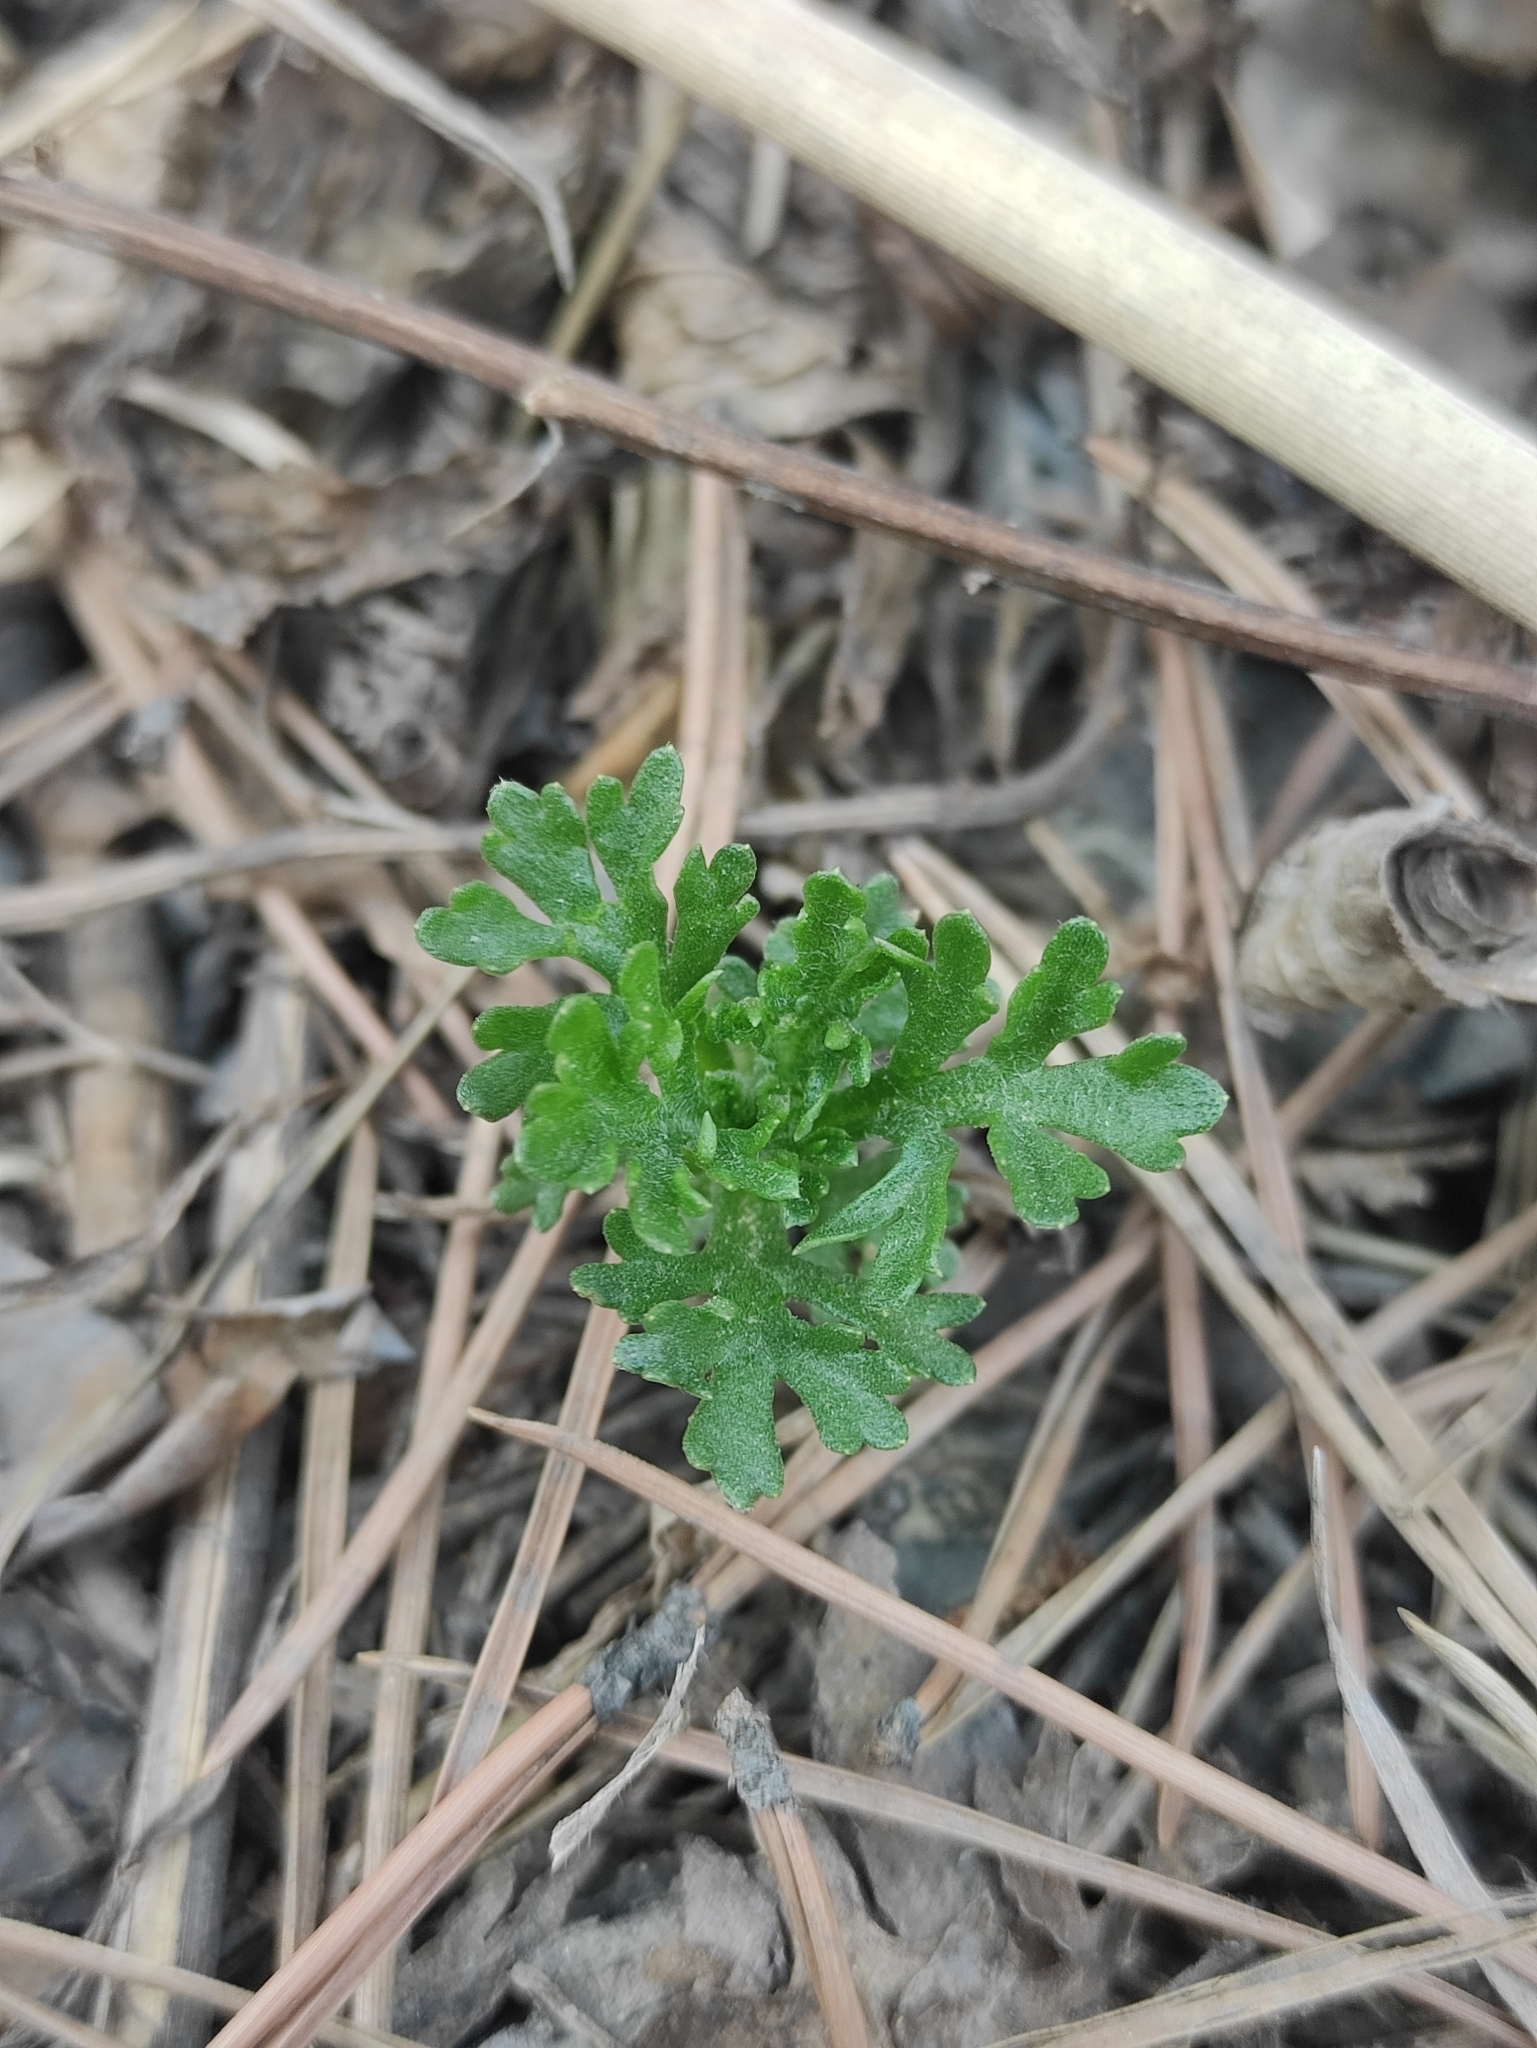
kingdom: Plantae
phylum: Tracheophyta
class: Magnoliopsida
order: Asterales
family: Asteraceae
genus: Chrysanthemum
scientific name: Chrysanthemum zawadzkii
